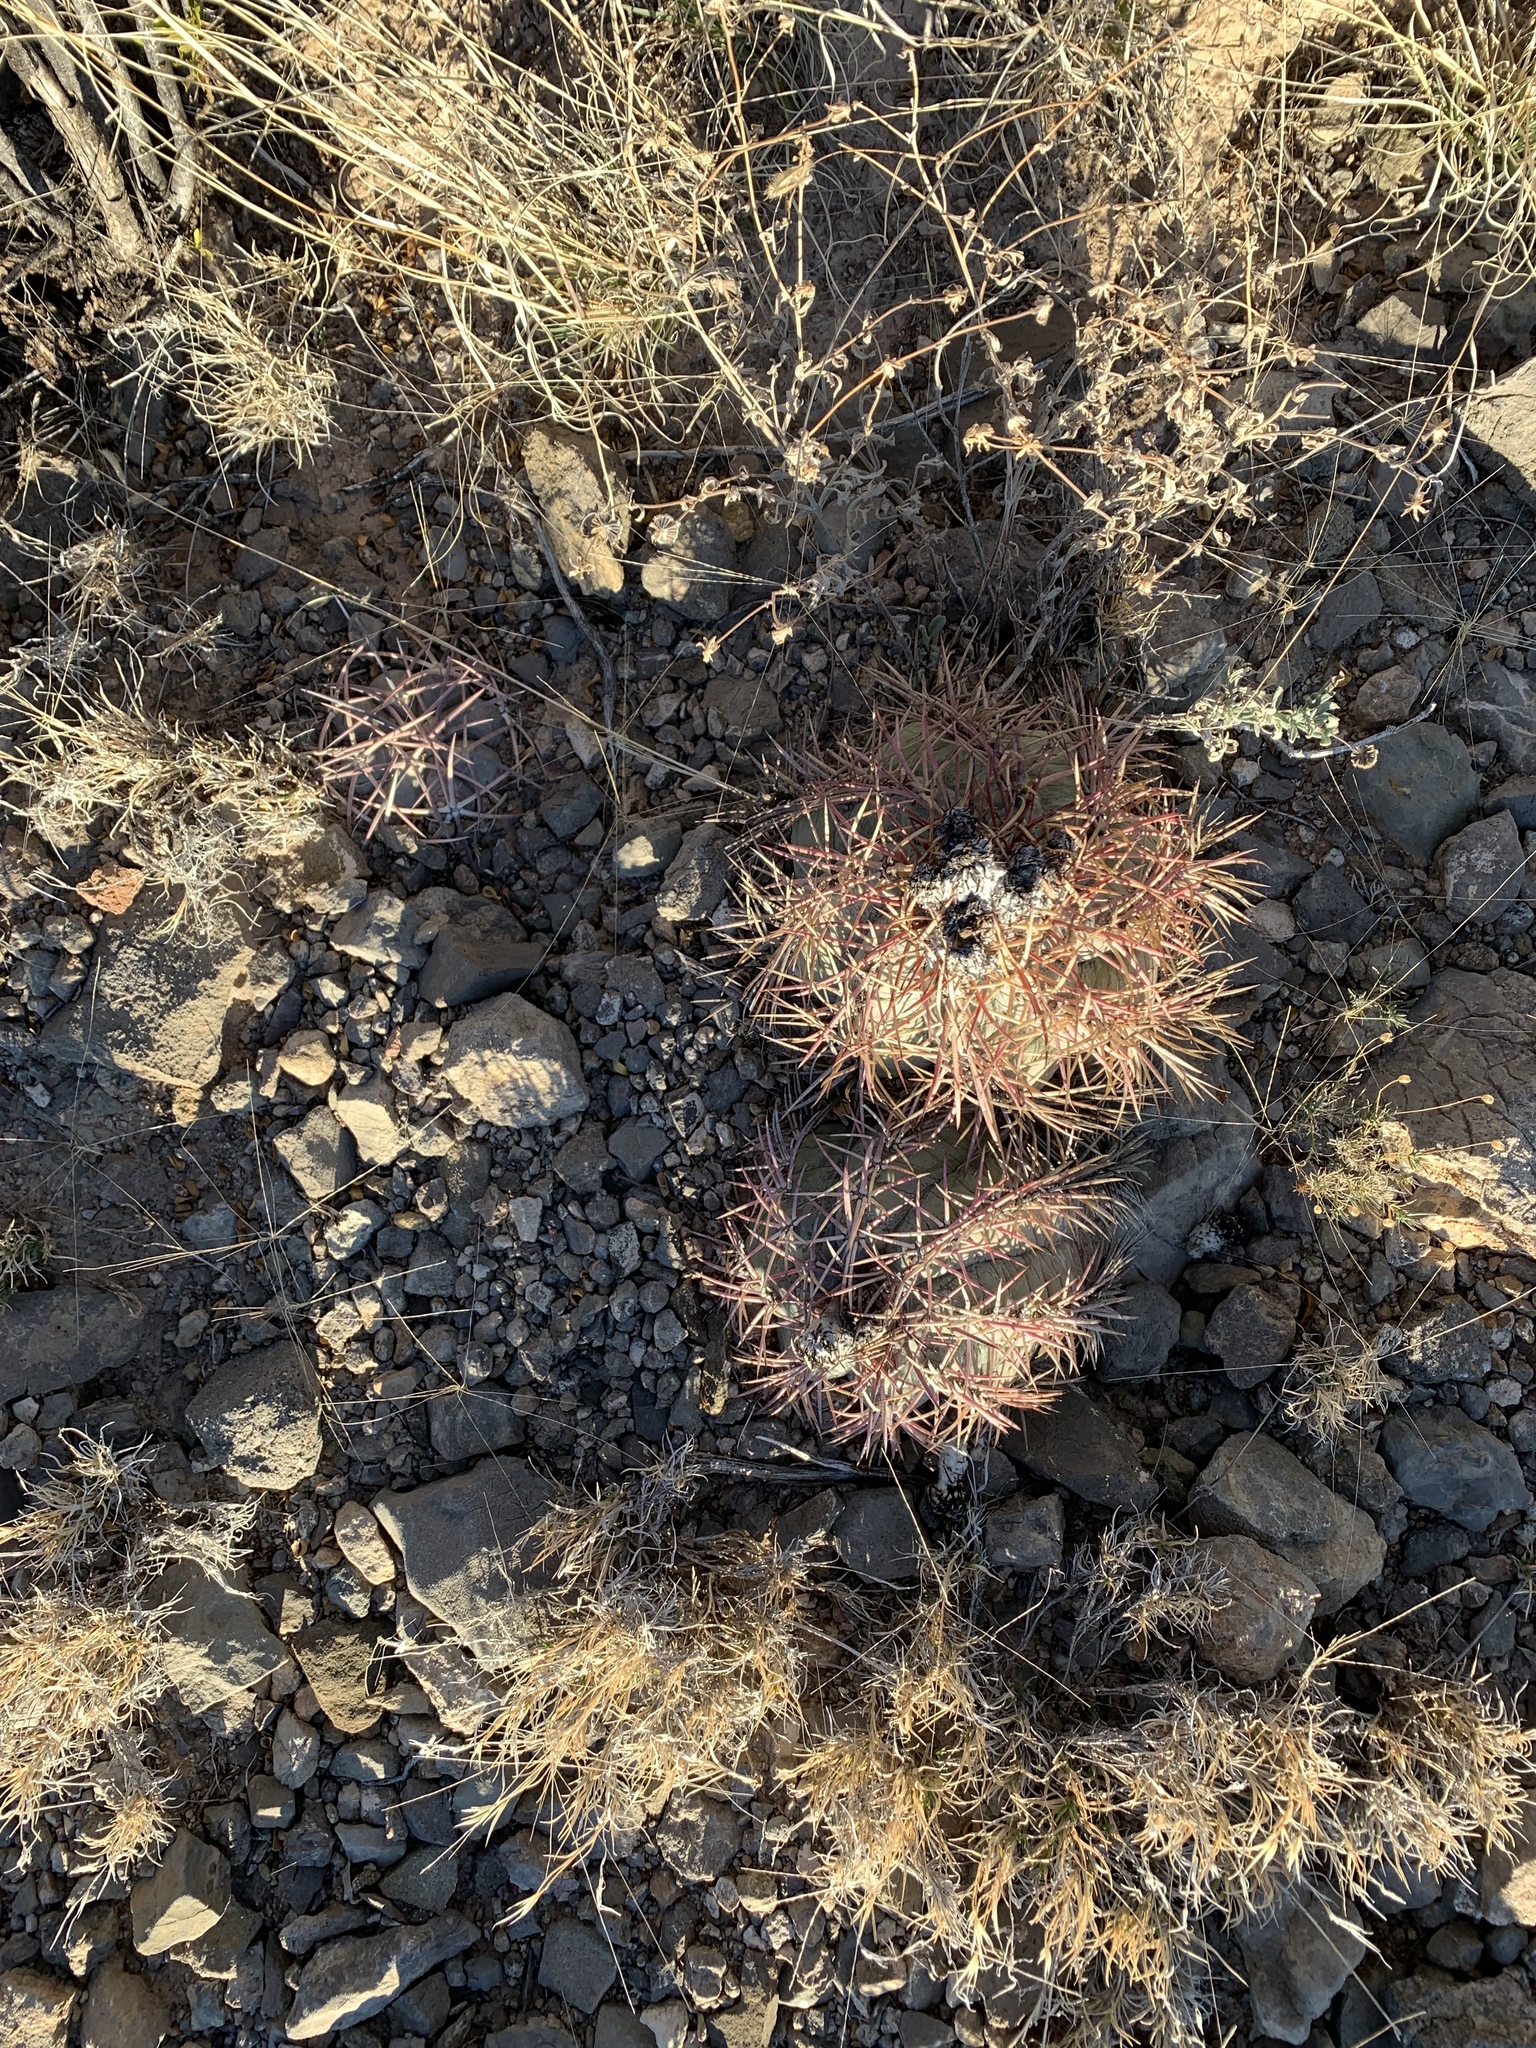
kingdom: Plantae
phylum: Tracheophyta
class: Magnoliopsida
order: Caryophyllales
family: Cactaceae
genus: Echinocactus
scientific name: Echinocactus horizonthalonius
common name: Devilshead
